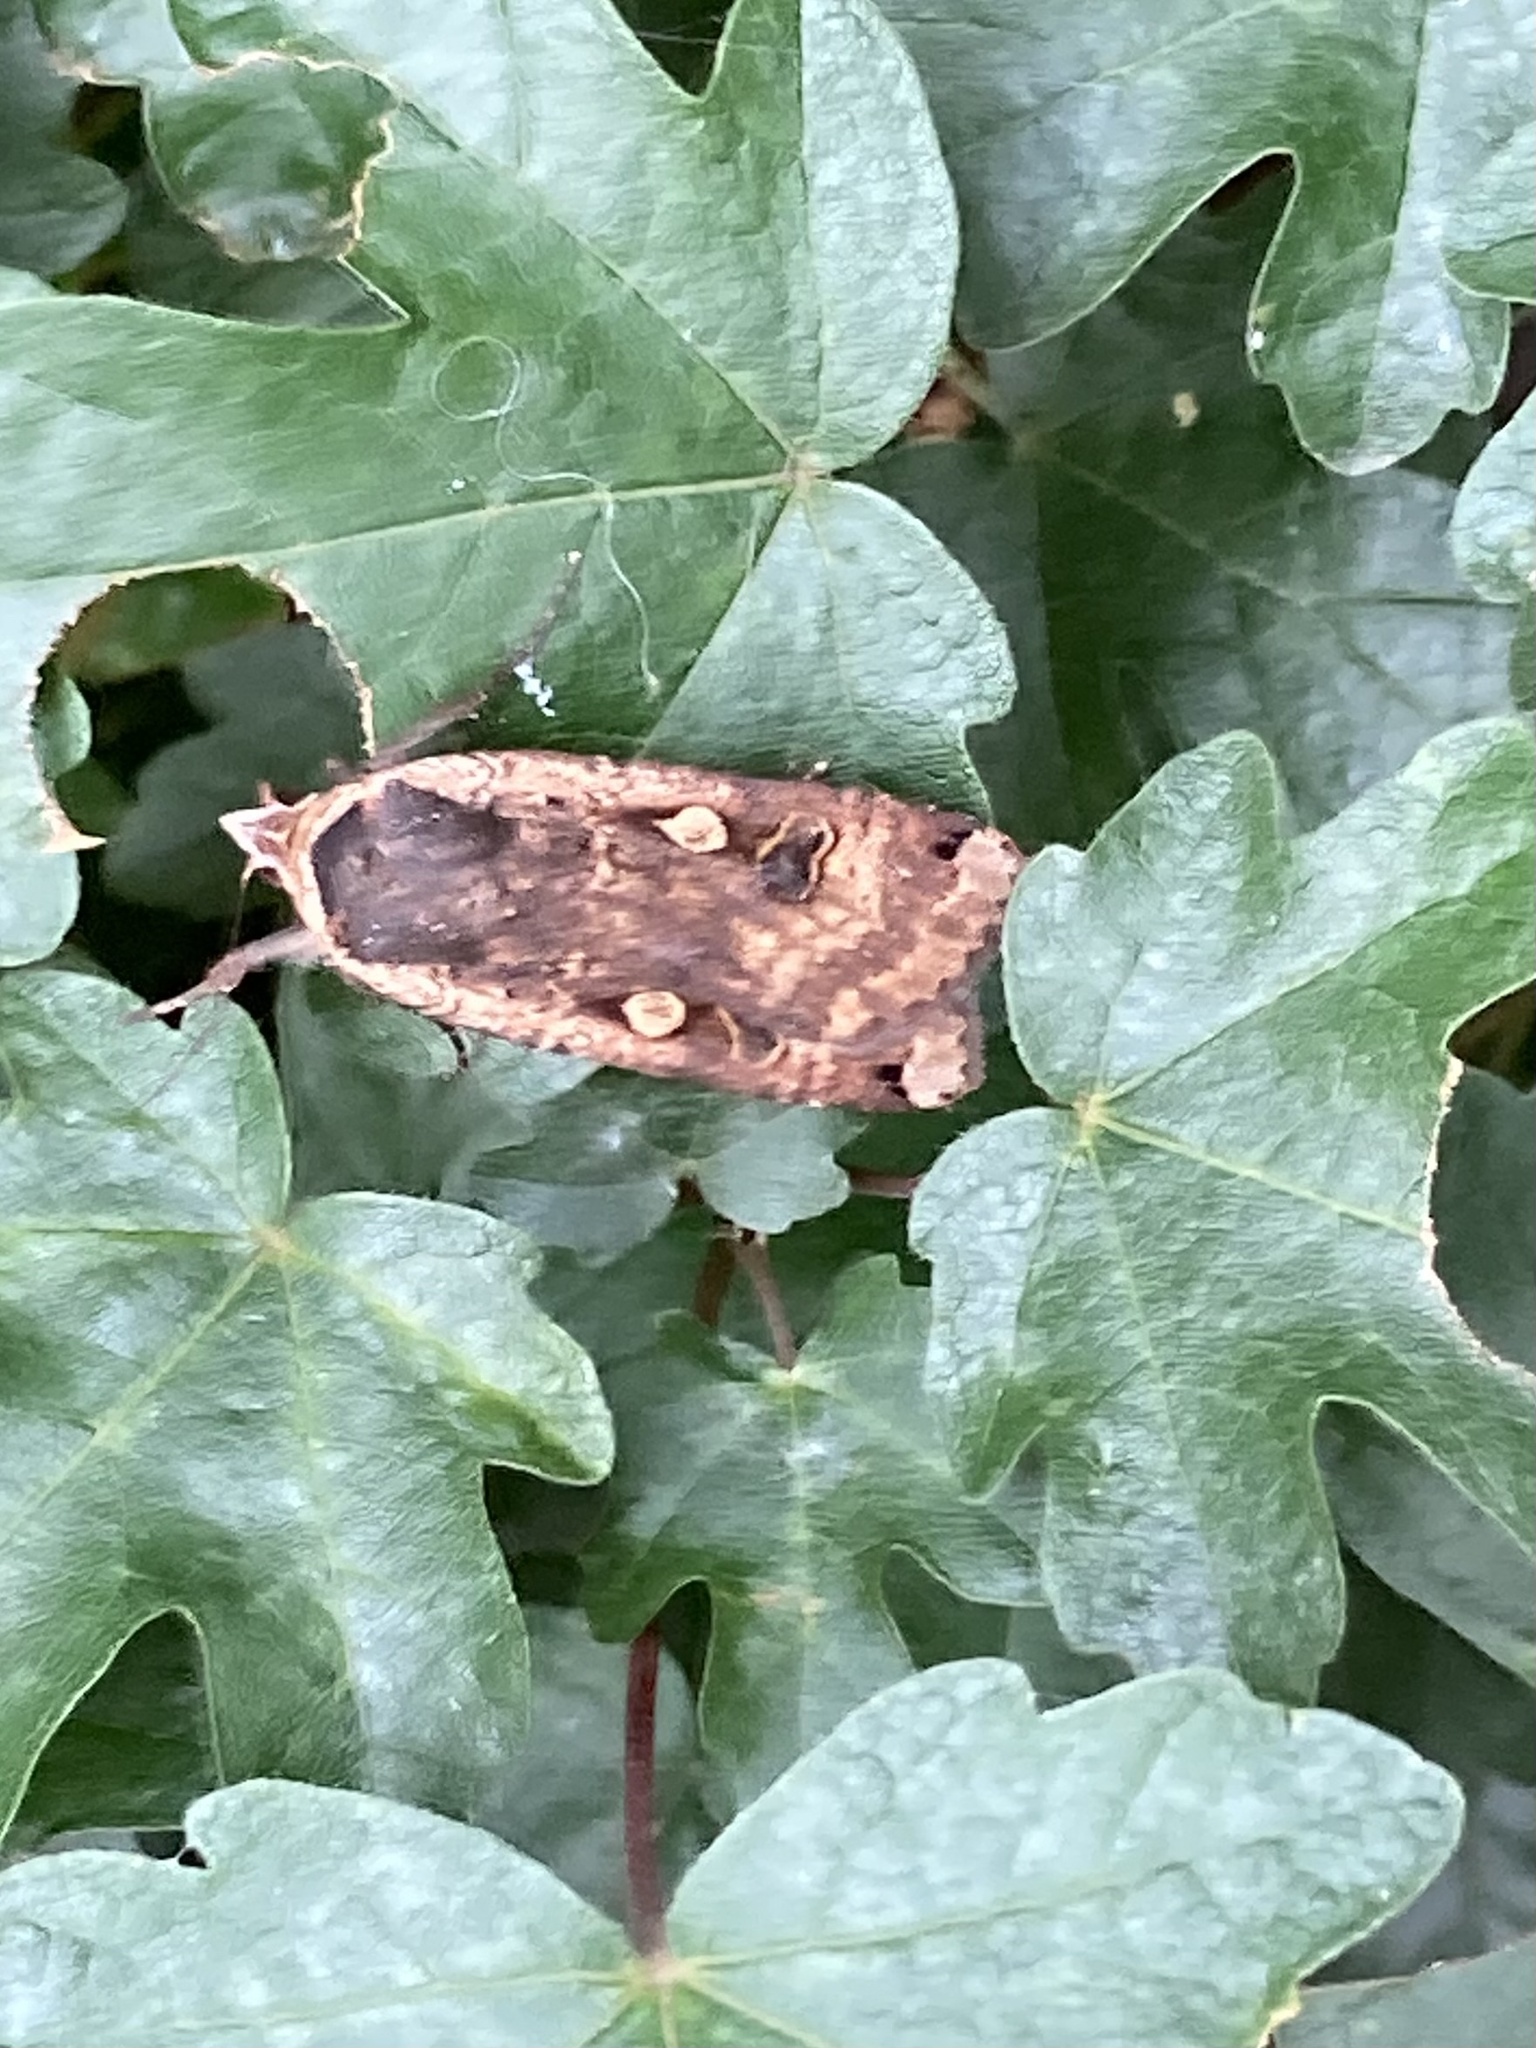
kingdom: Animalia
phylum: Arthropoda
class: Insecta
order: Lepidoptera
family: Noctuidae
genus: Noctua
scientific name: Noctua pronuba
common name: Large yellow underwing
